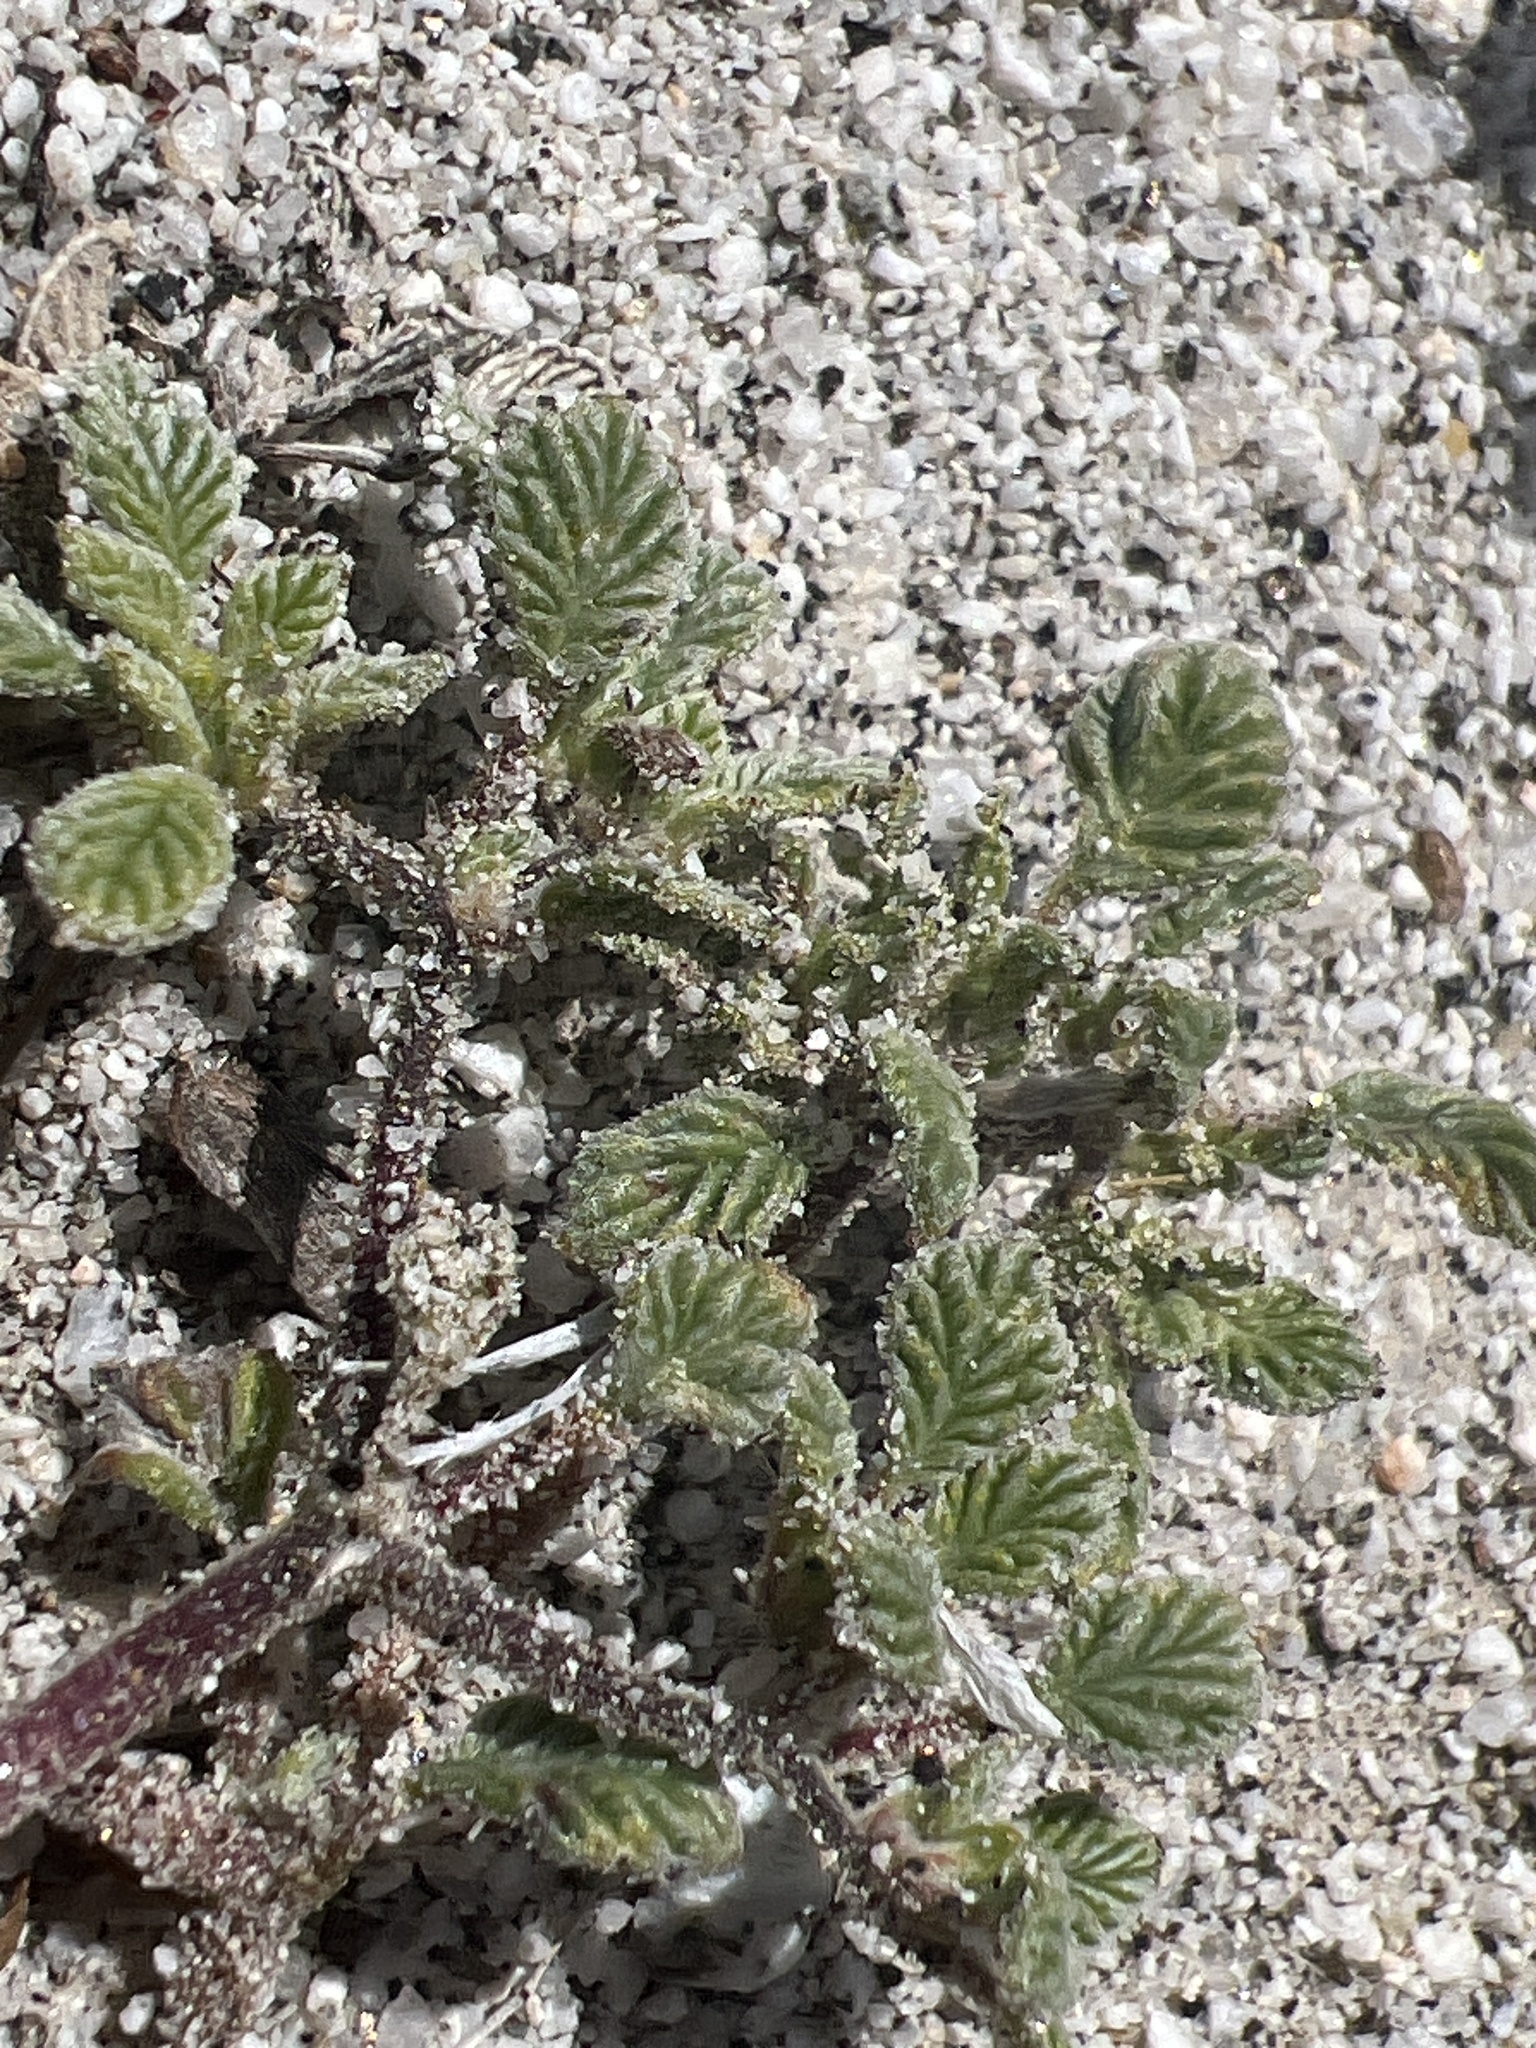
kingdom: Plantae
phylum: Tracheophyta
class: Magnoliopsida
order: Boraginales
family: Ehretiaceae
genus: Tiquilia
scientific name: Tiquilia plicata
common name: Fan-leaf tiquilia
